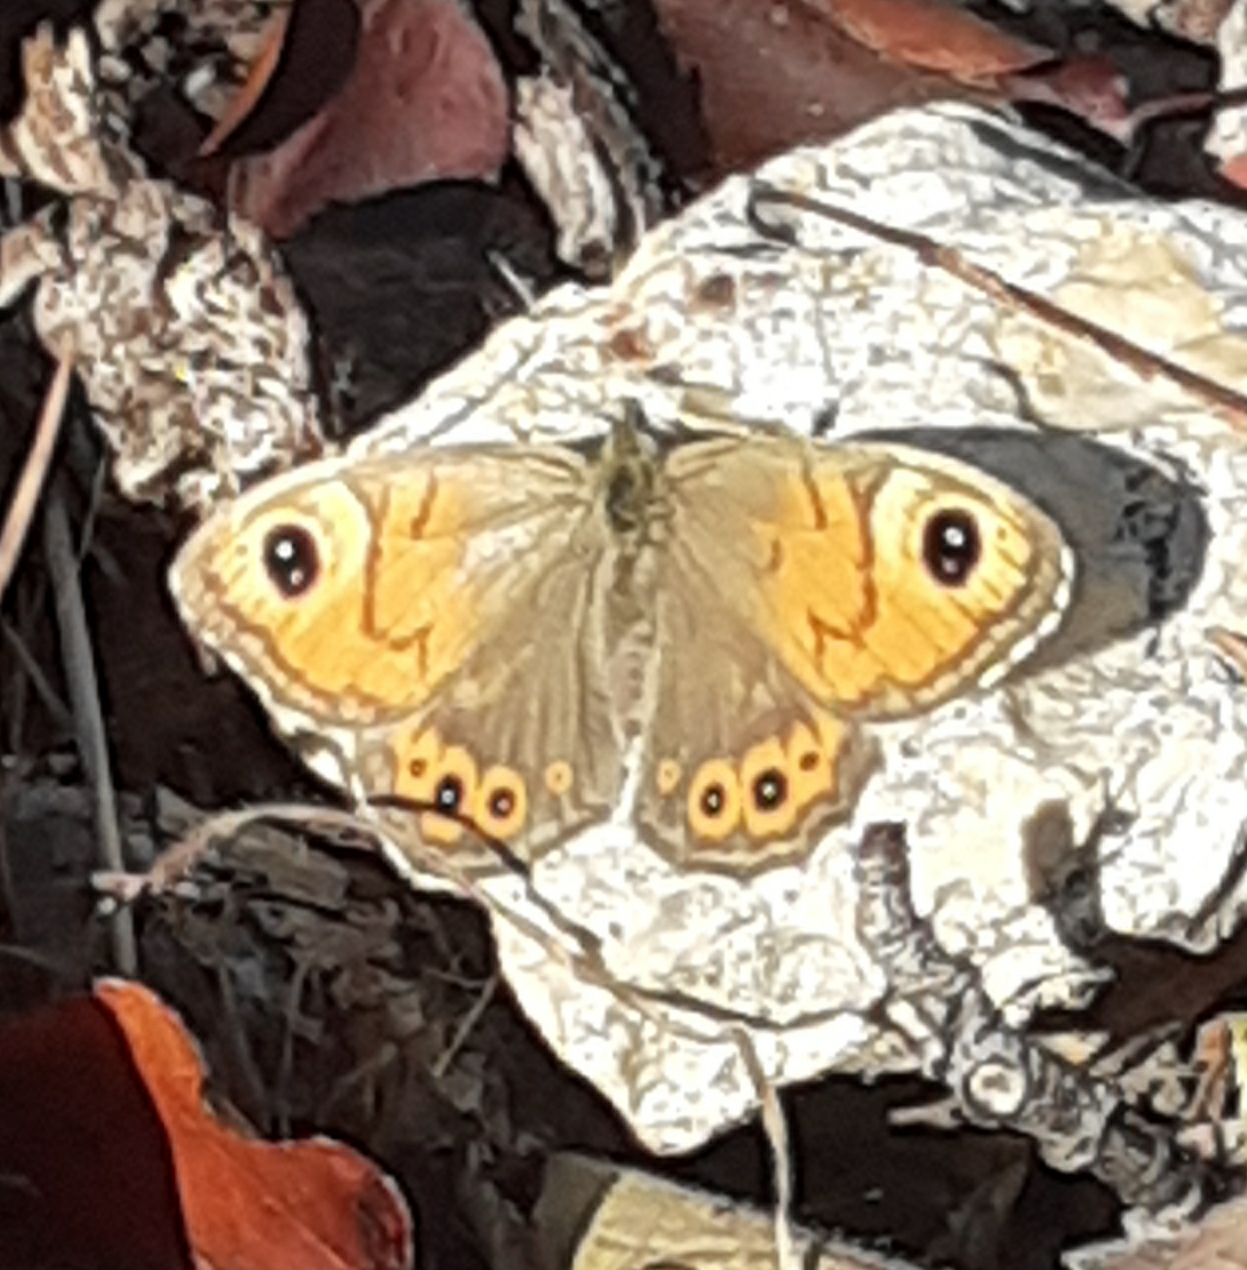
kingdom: Animalia
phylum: Arthropoda
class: Insecta
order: Lepidoptera
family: Nymphalidae
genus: Pararge
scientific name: Pararge Lasiommata megera
